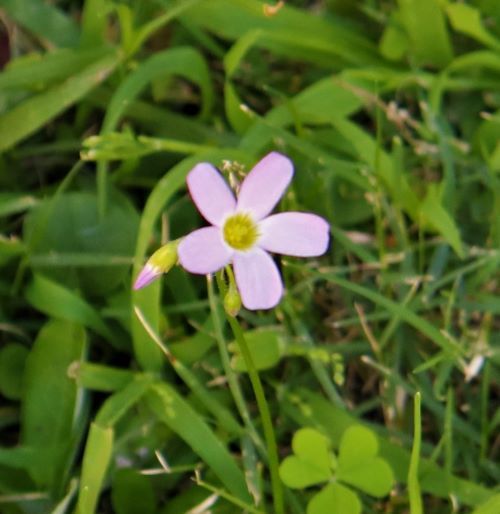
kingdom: Plantae
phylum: Tracheophyta
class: Magnoliopsida
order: Oxalidales
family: Oxalidaceae
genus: Oxalis
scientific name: Oxalis caprina
